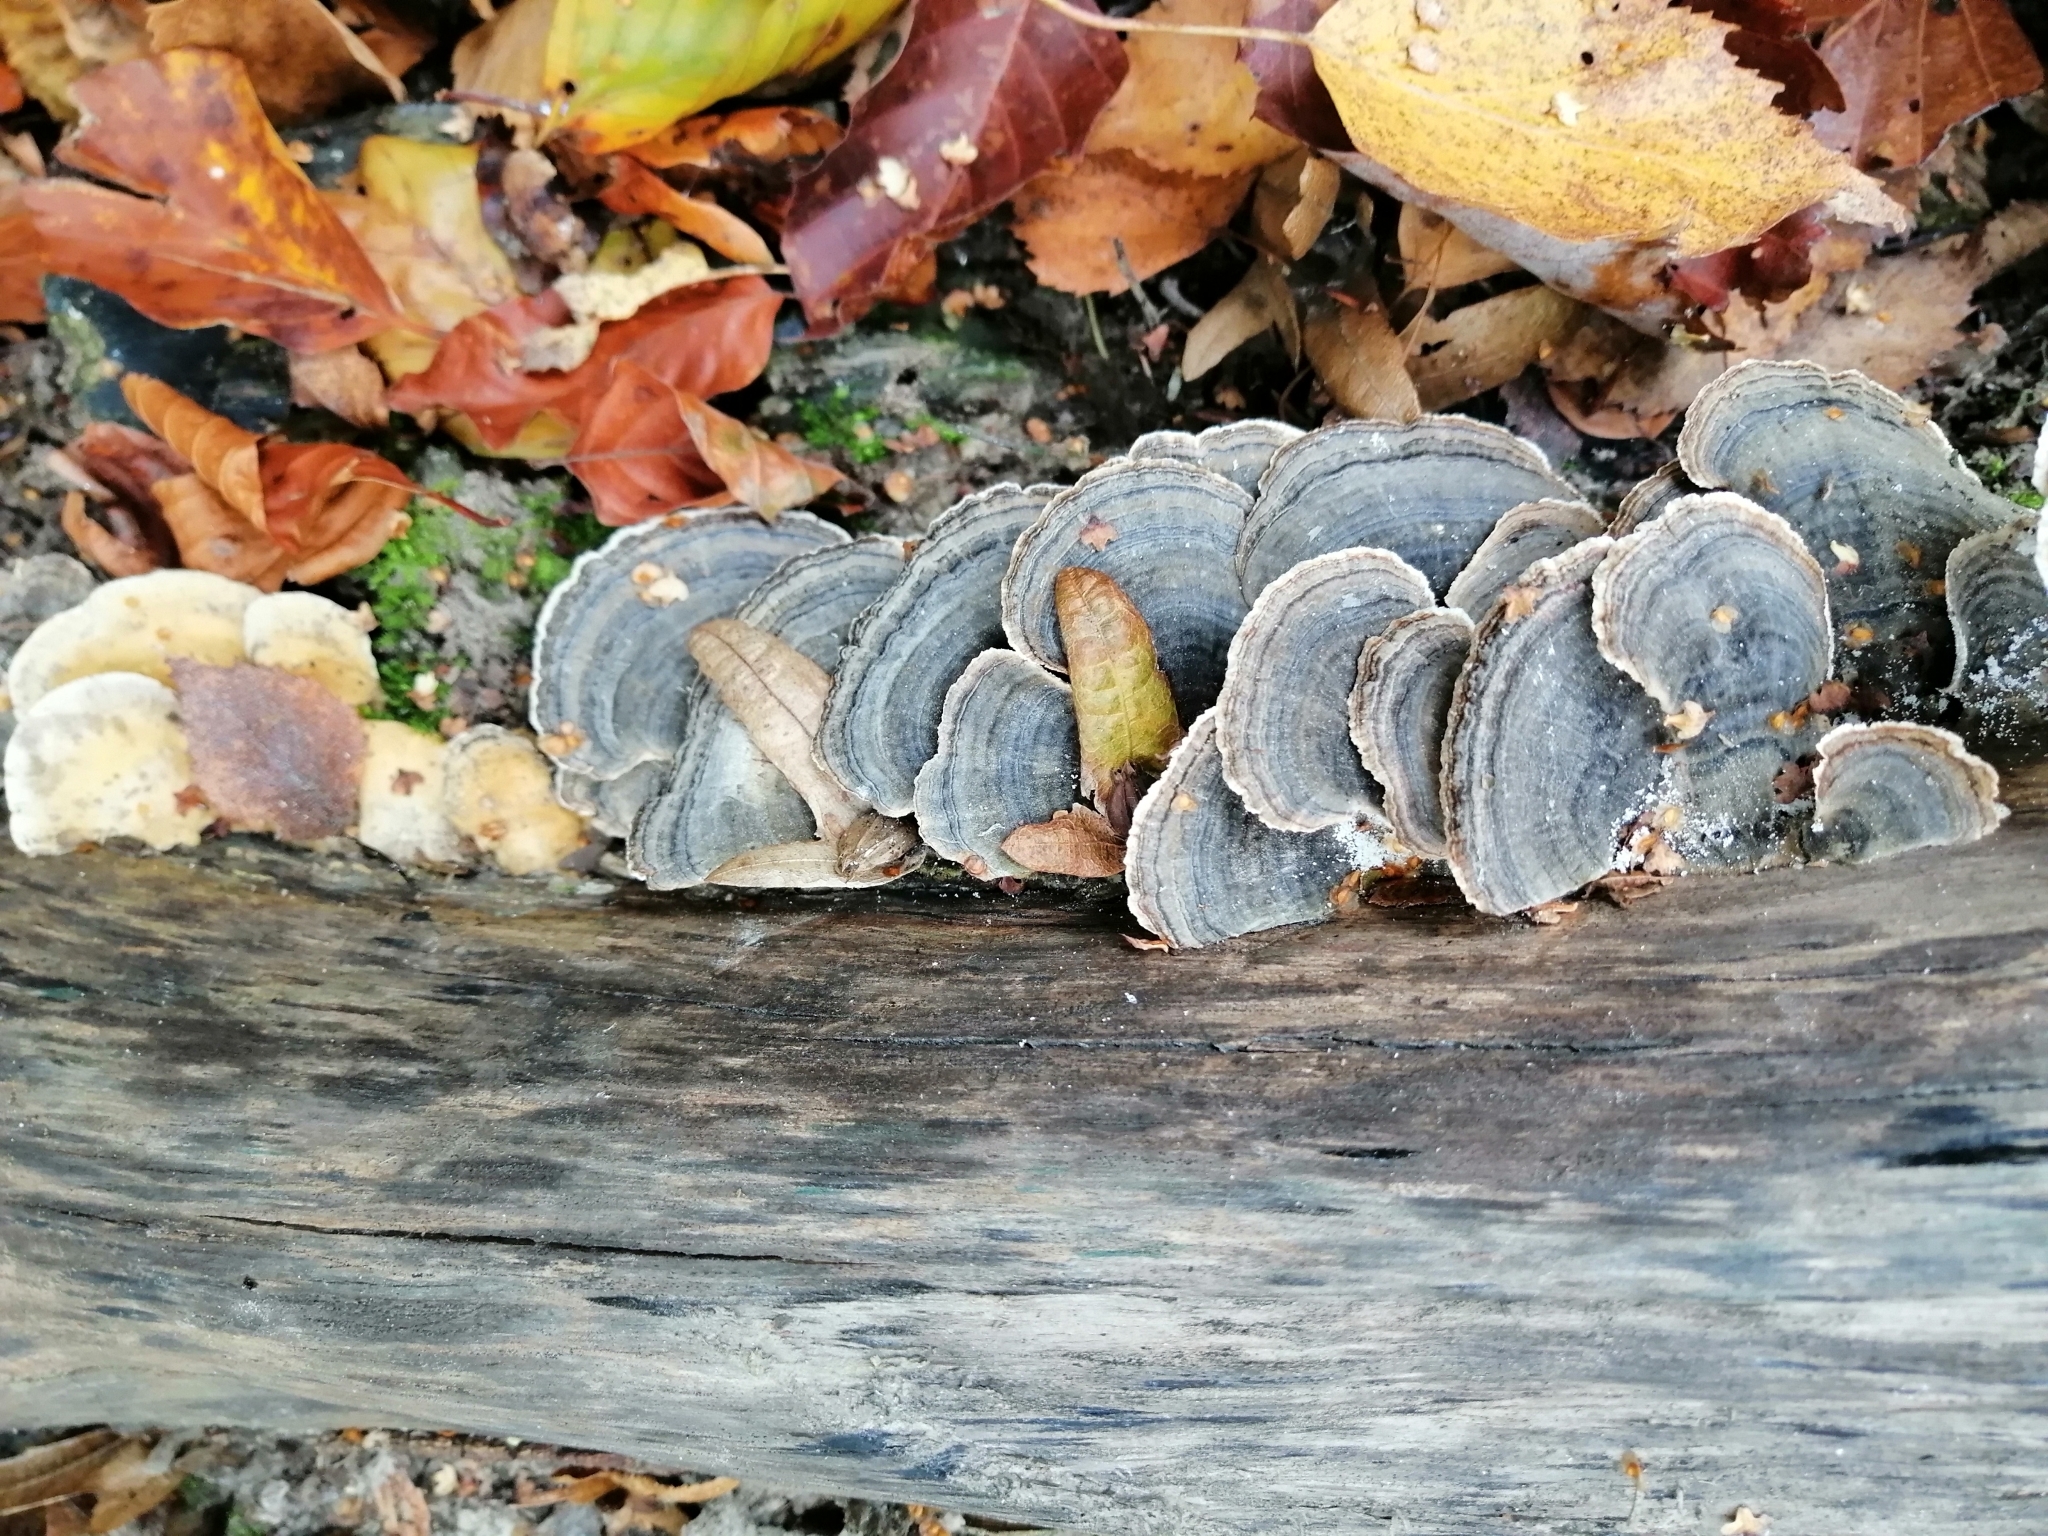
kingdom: Fungi
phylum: Basidiomycota
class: Agaricomycetes
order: Polyporales
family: Polyporaceae
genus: Trametes
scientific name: Trametes versicolor
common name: Turkeytail
